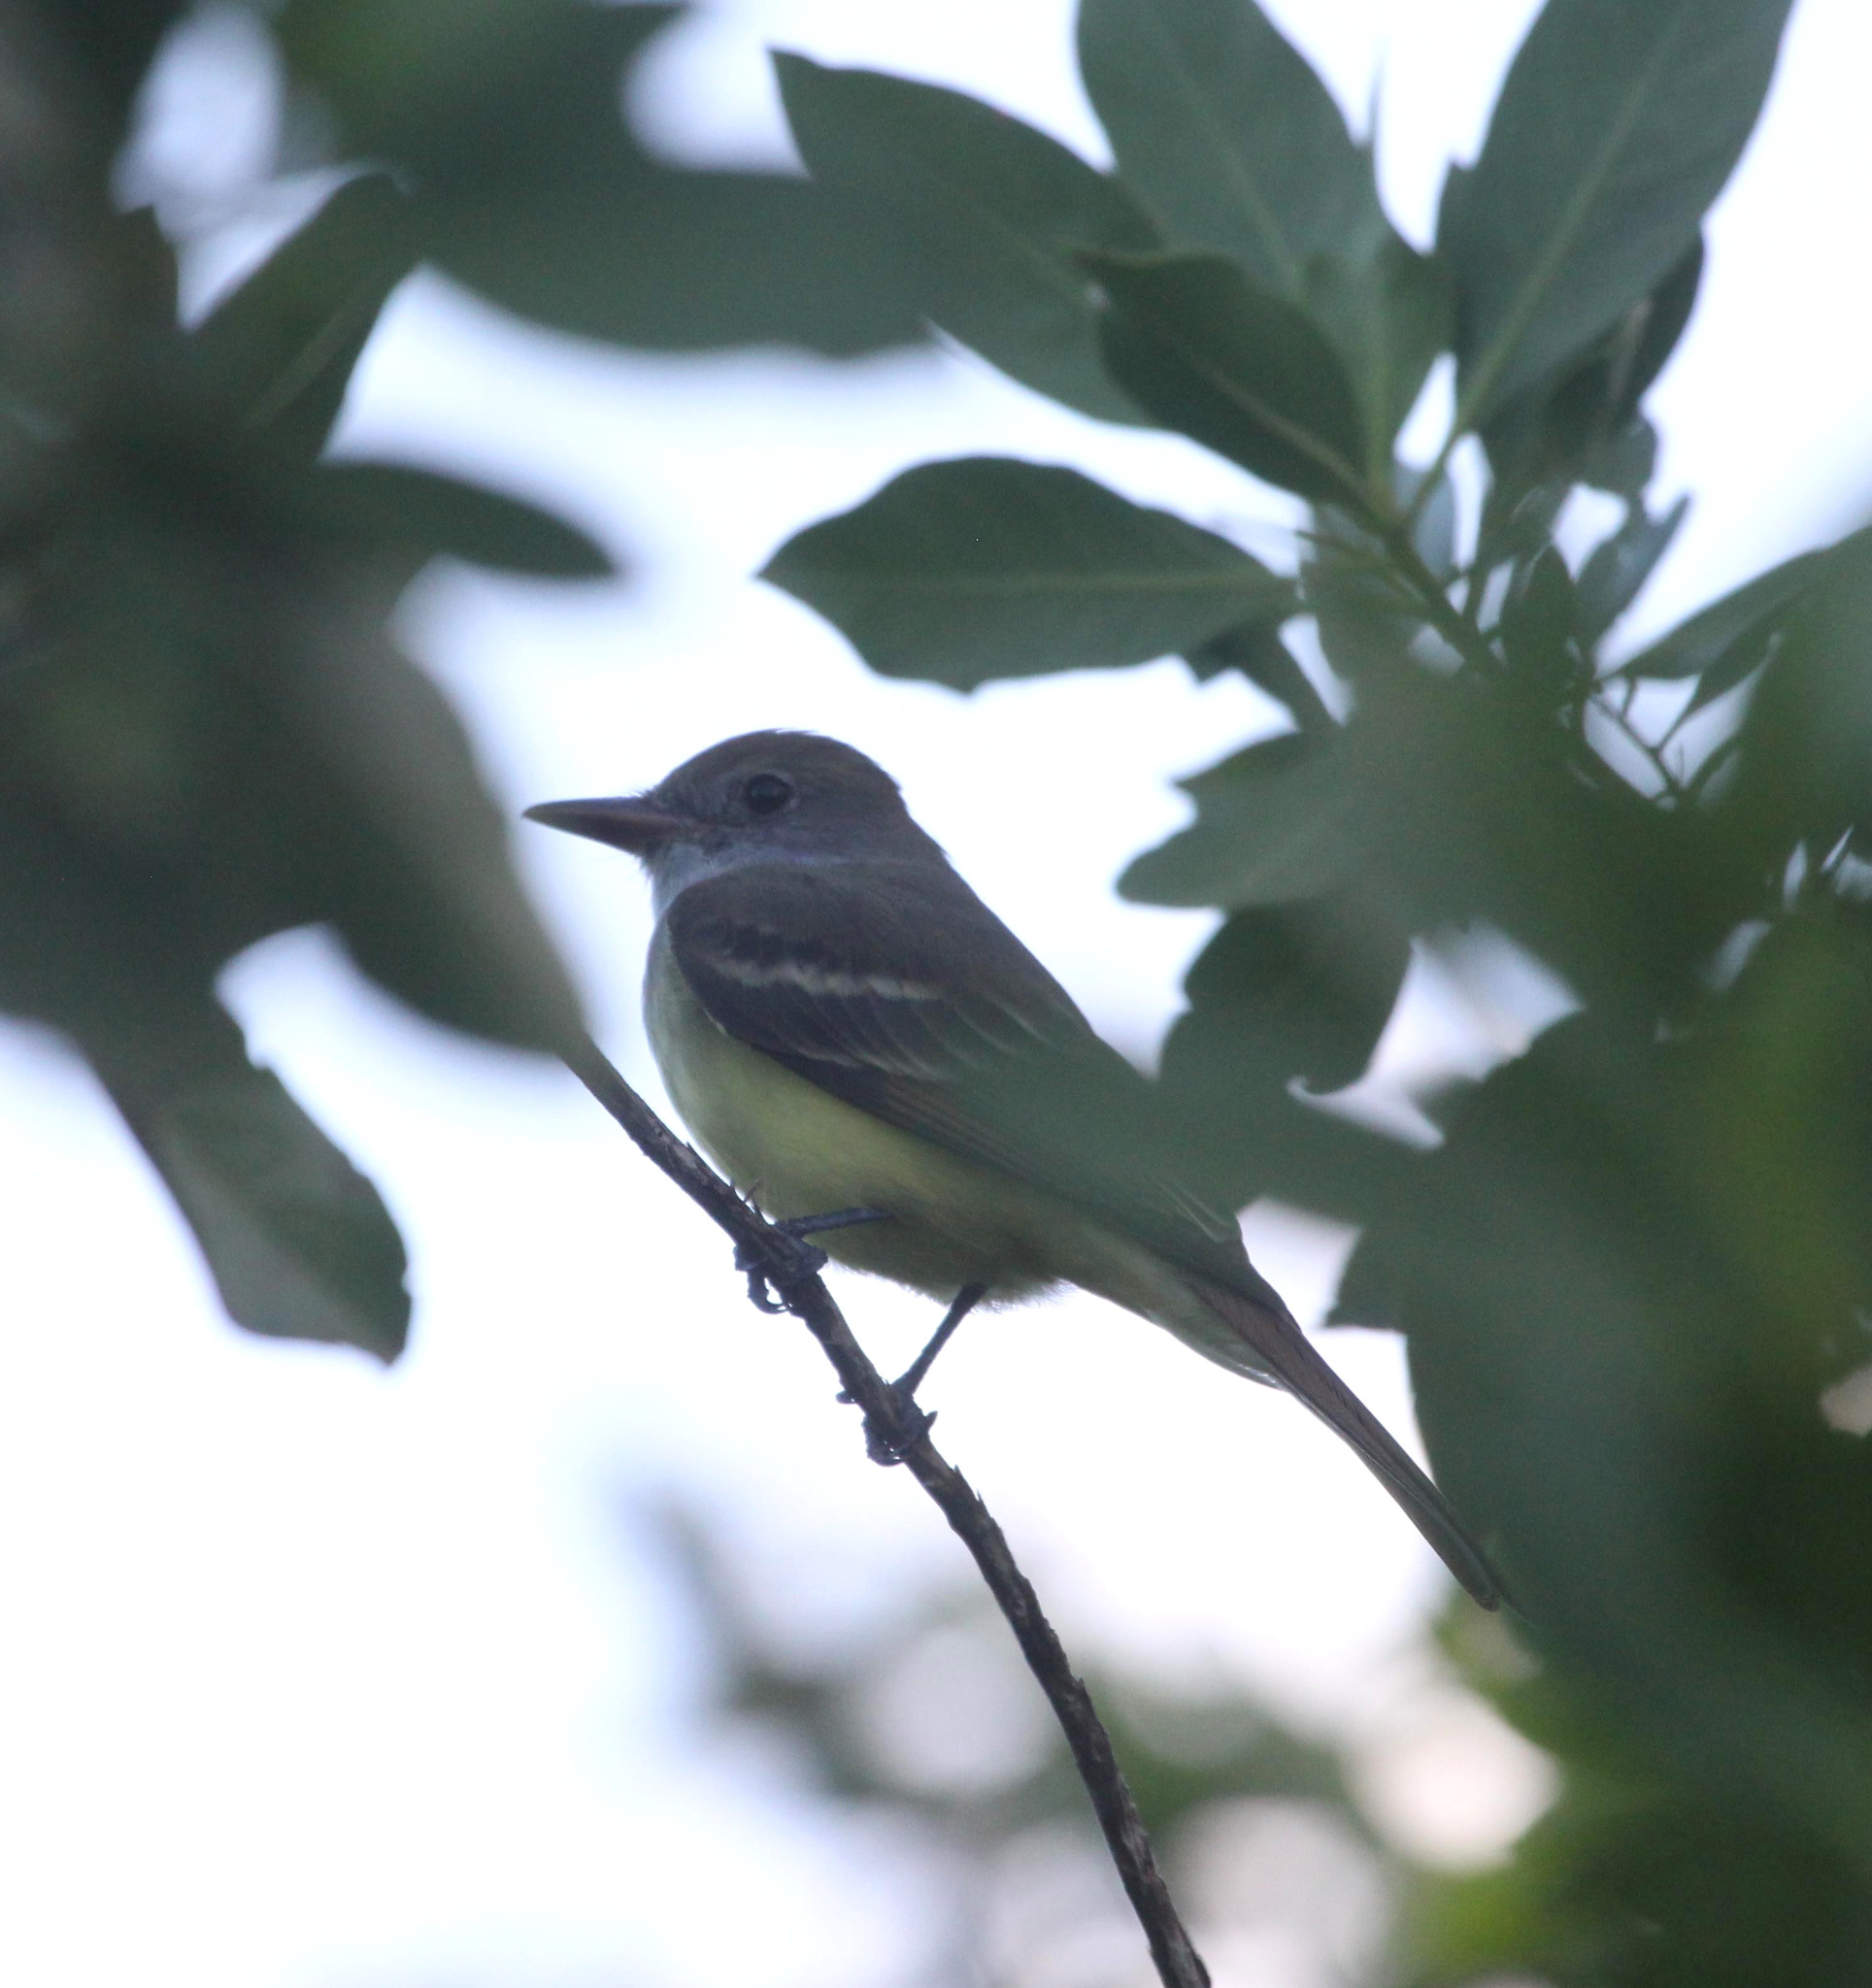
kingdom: Animalia
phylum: Chordata
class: Aves
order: Passeriformes
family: Tyrannidae
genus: Myiarchus
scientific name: Myiarchus crinitus
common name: Great crested flycatcher
